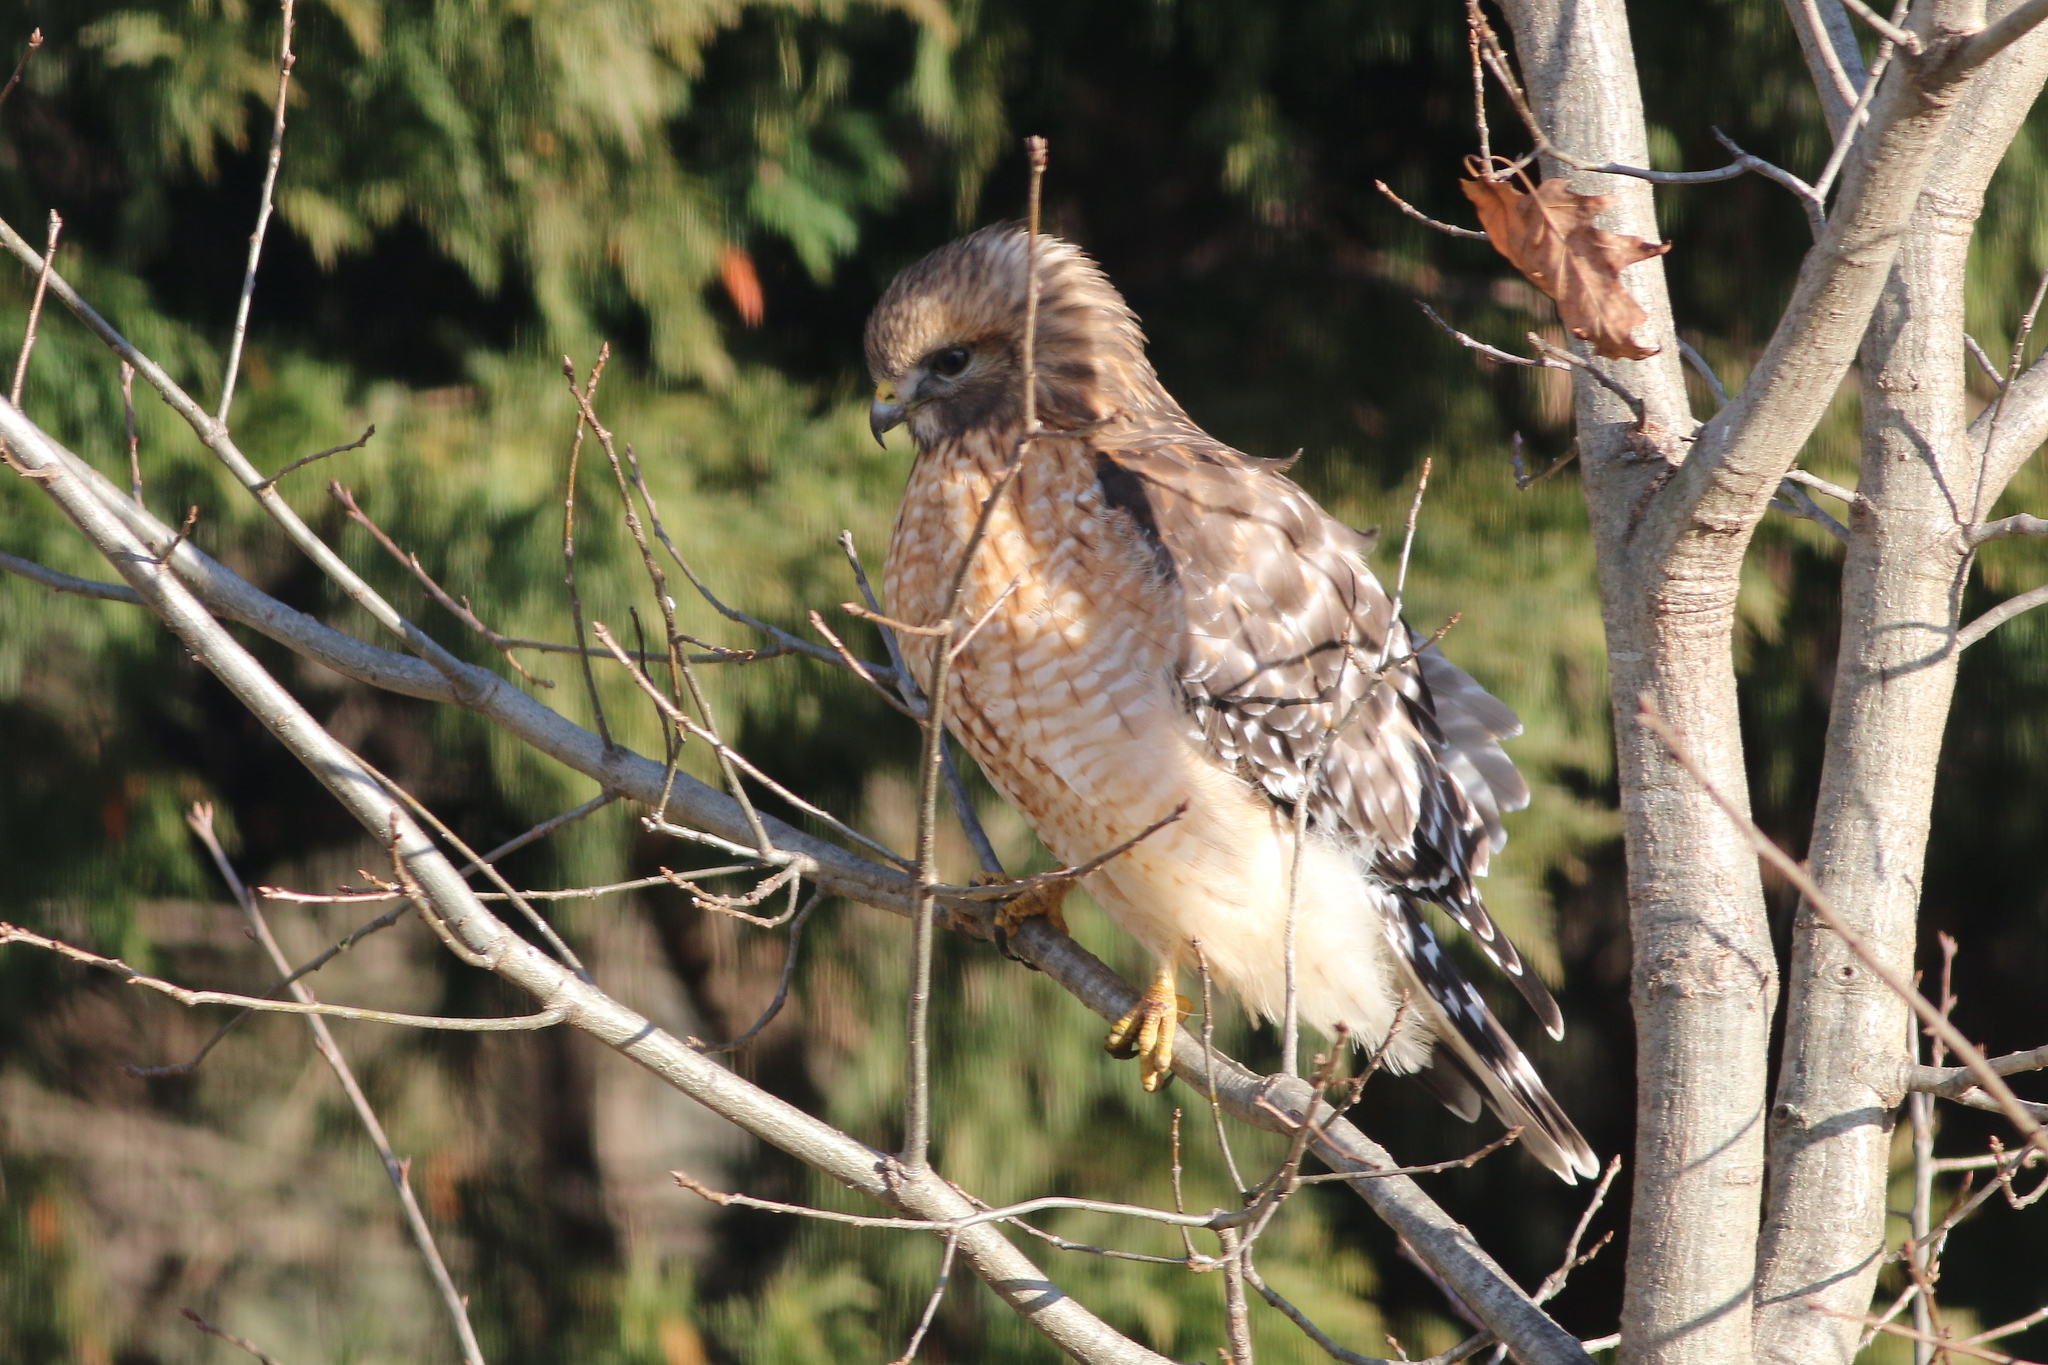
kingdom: Animalia
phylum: Chordata
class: Aves
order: Accipitriformes
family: Accipitridae
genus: Buteo
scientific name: Buteo lineatus
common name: Red-shouldered hawk
